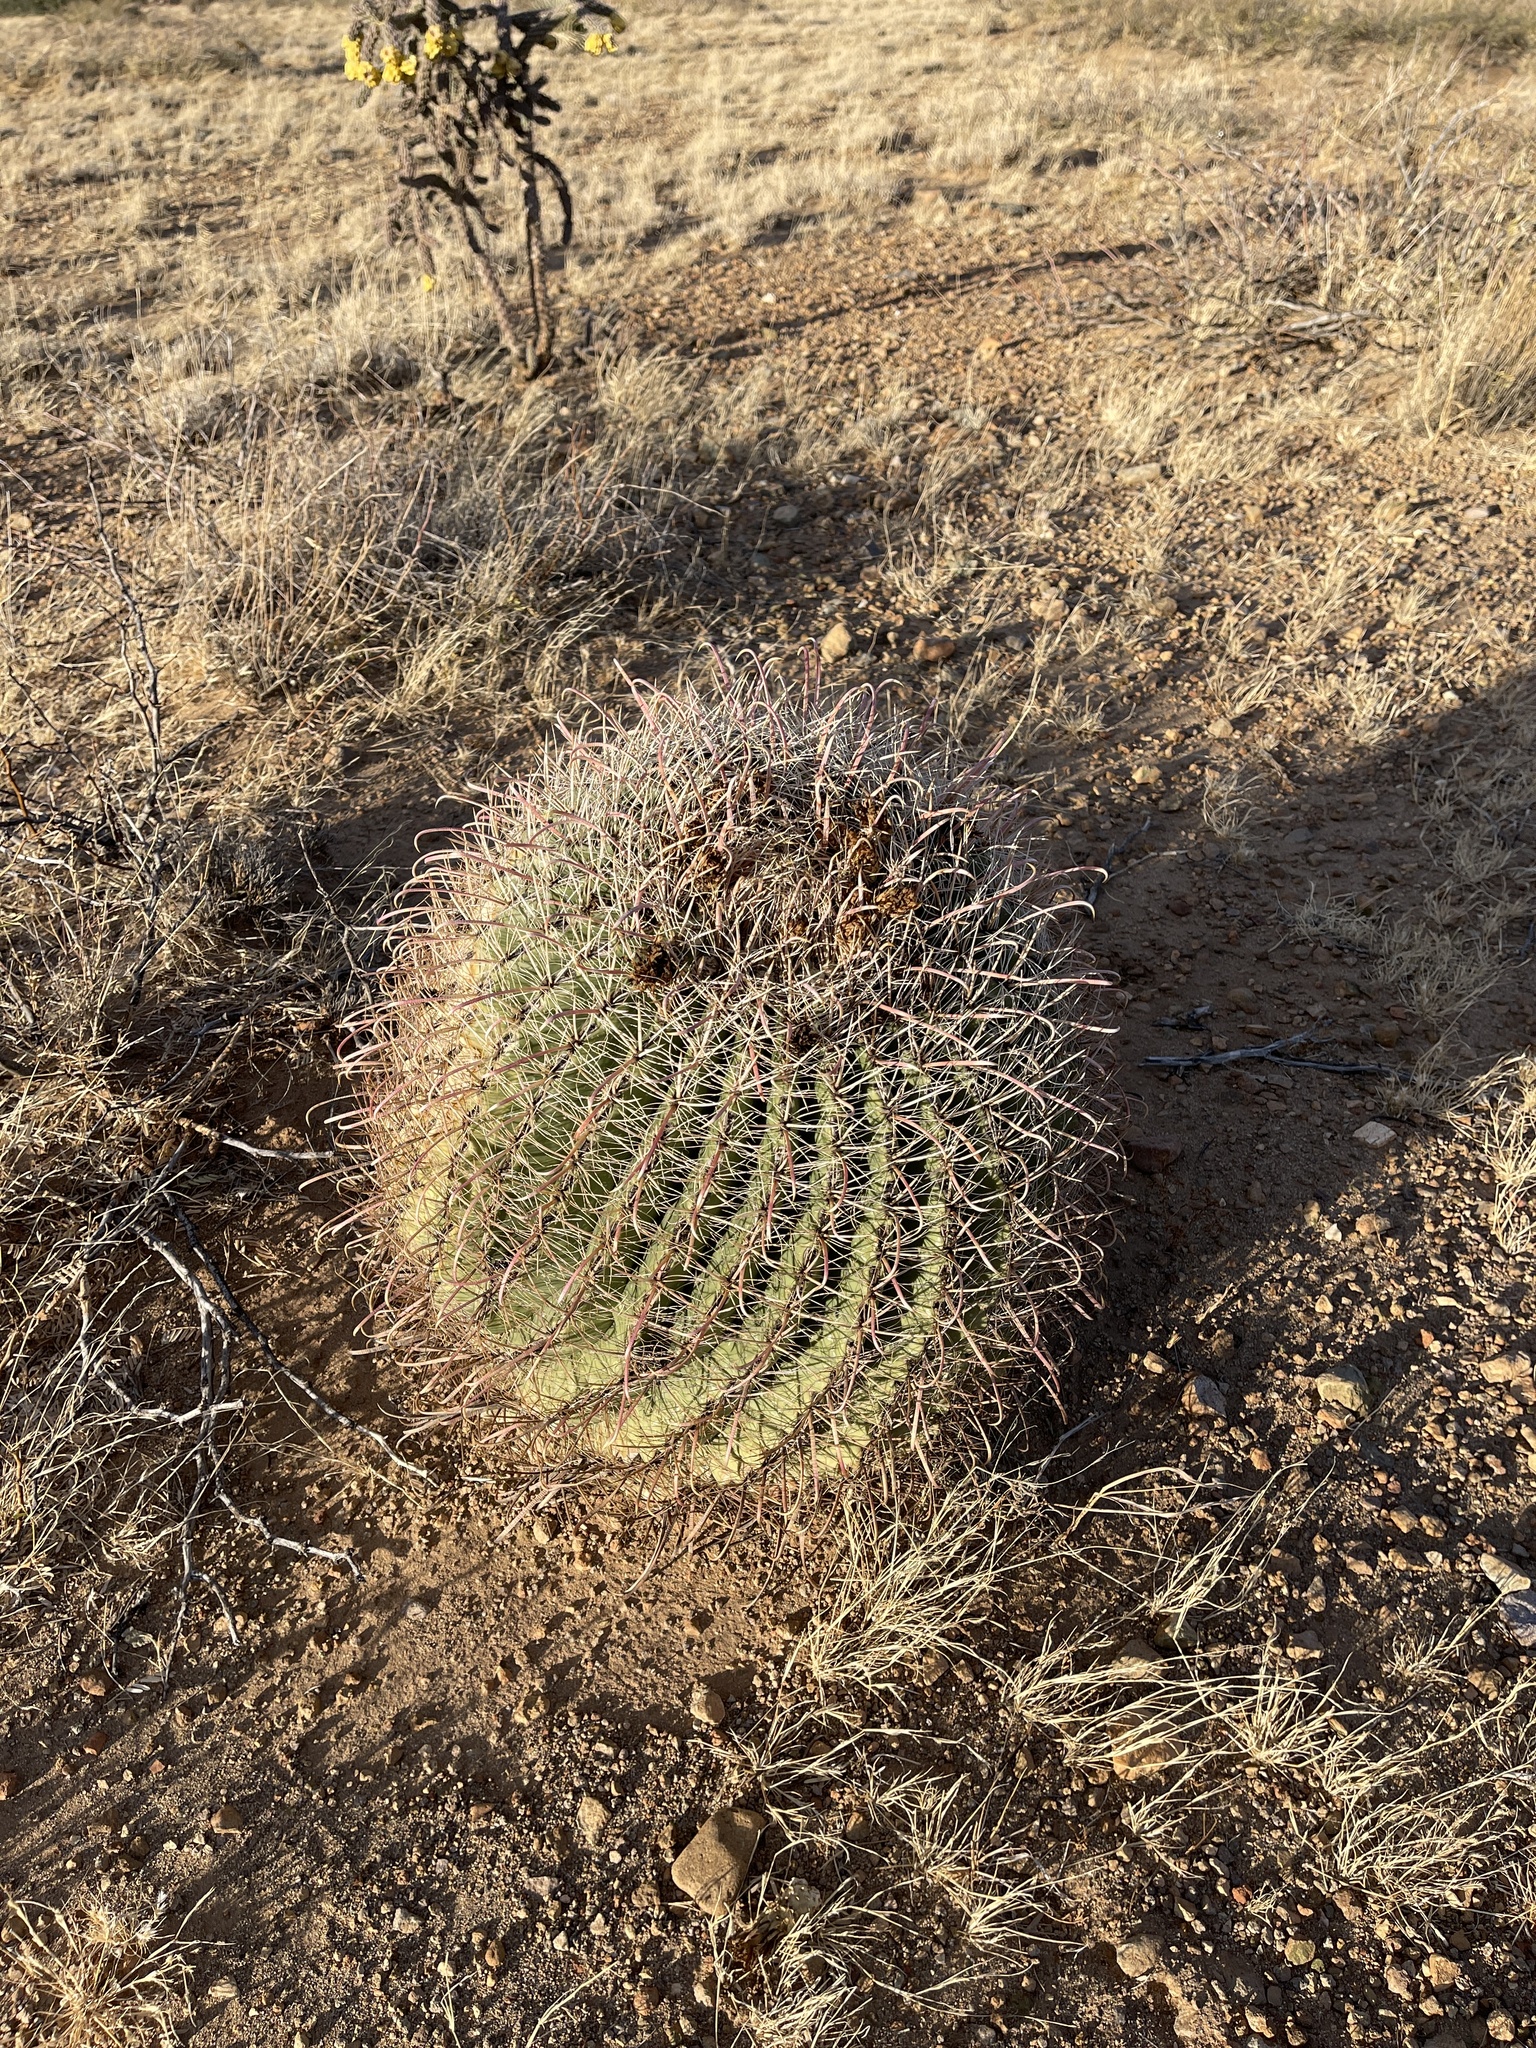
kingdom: Plantae
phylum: Tracheophyta
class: Magnoliopsida
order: Caryophyllales
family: Cactaceae
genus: Ferocactus
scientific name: Ferocactus wislizeni
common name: Candy barrel cactus
